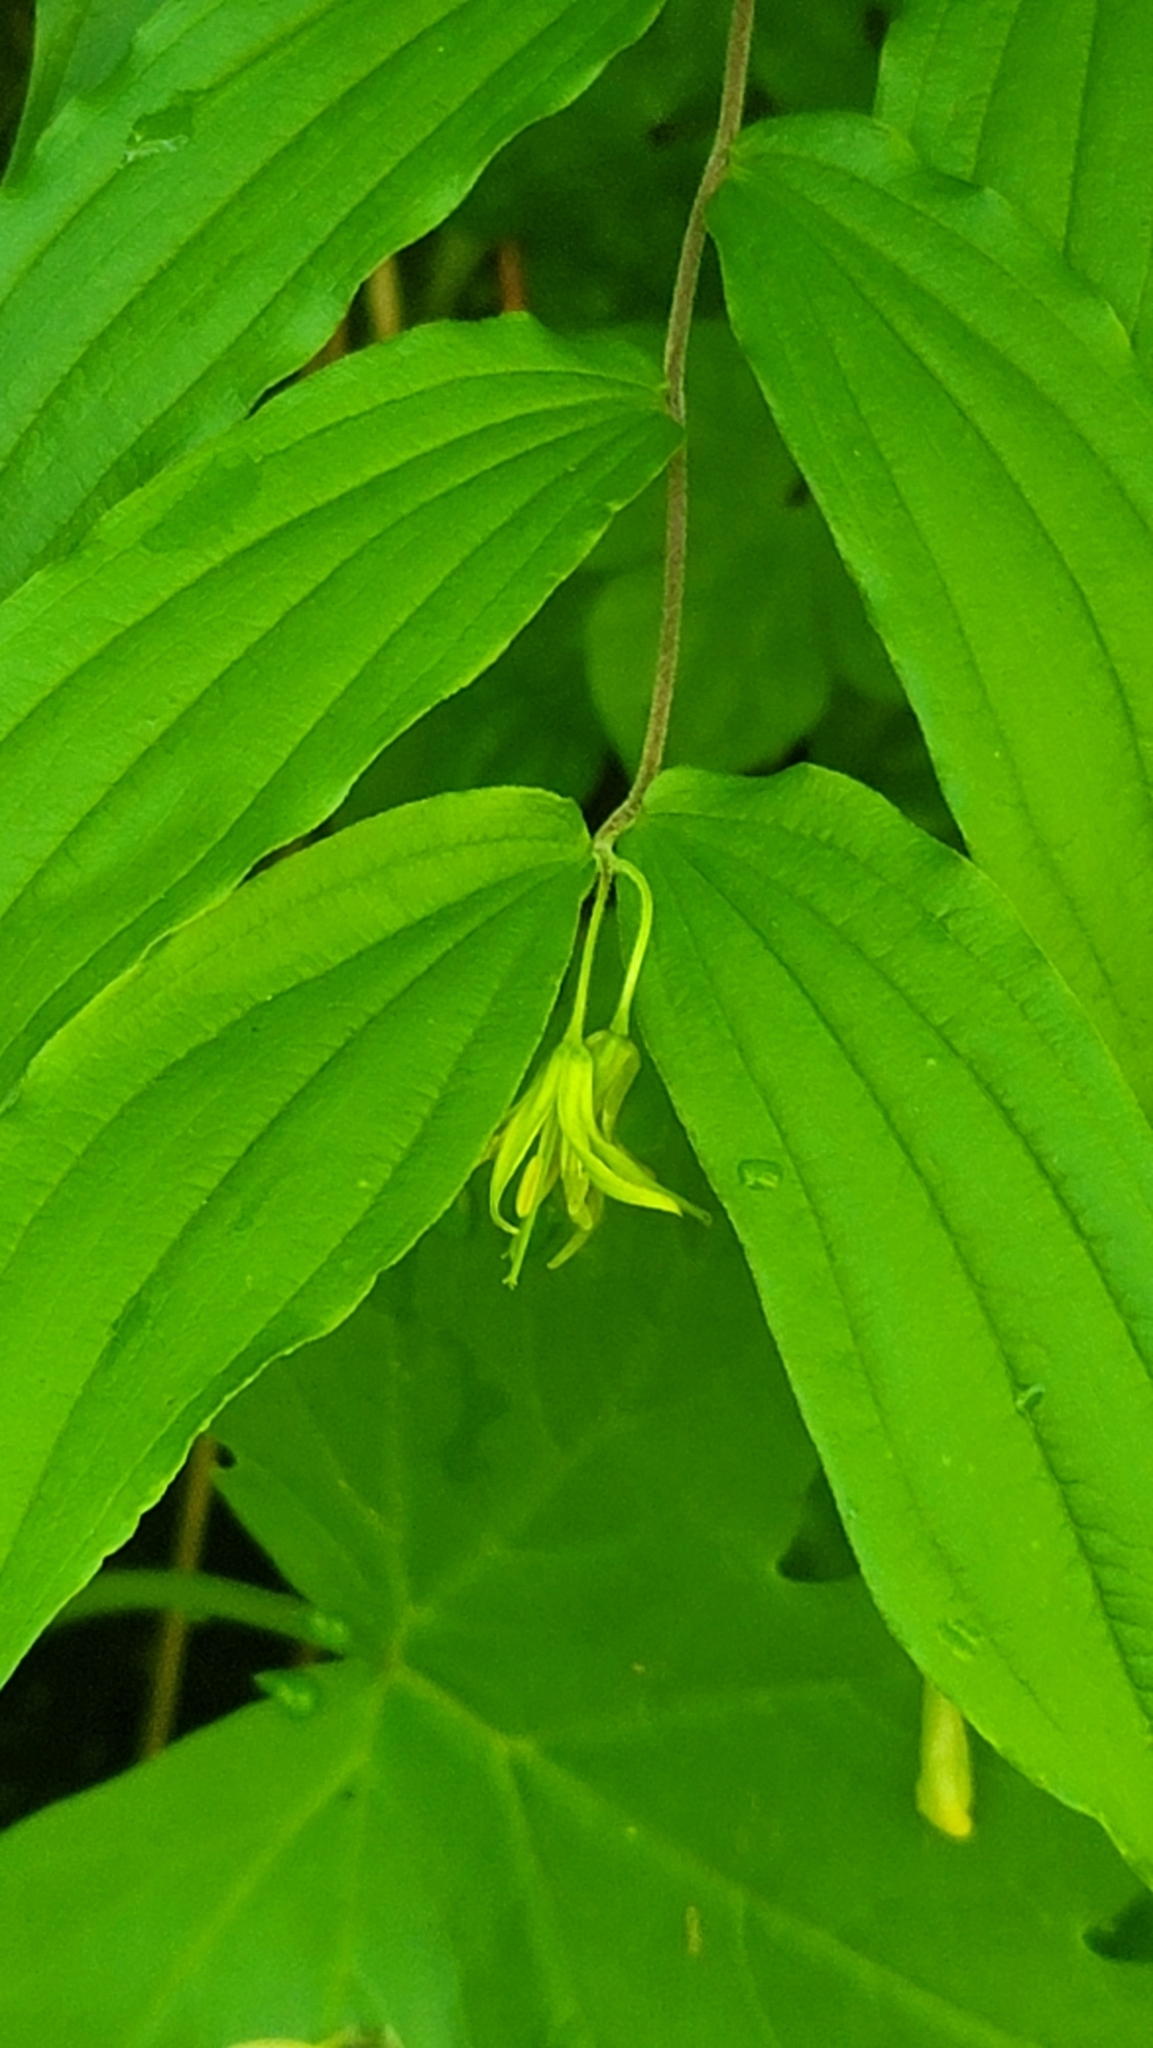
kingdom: Plantae
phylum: Tracheophyta
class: Liliopsida
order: Liliales
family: Liliaceae
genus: Prosartes
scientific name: Prosartes lanuginosa
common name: Hairy mandarin
